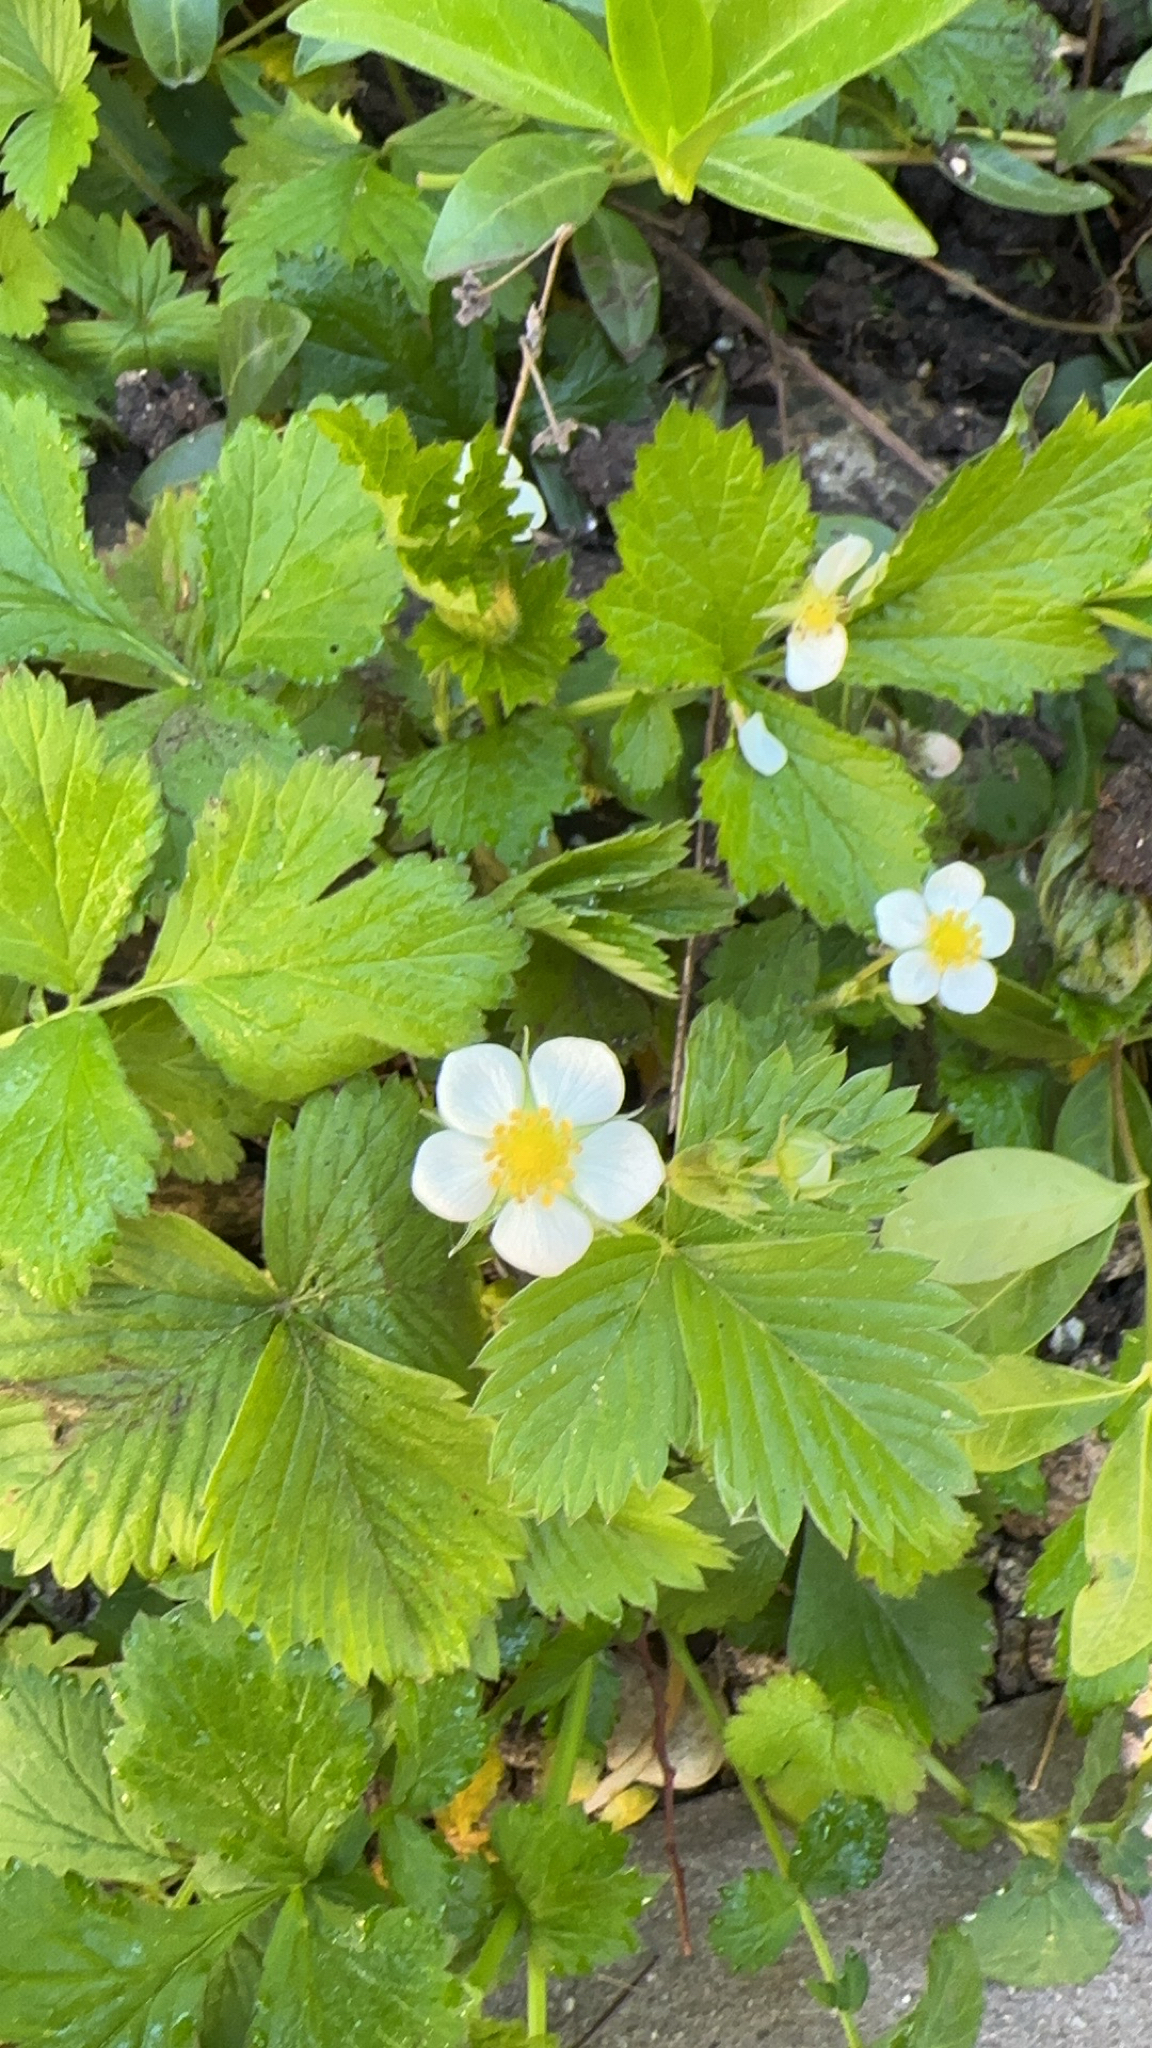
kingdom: Plantae
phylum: Tracheophyta
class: Magnoliopsida
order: Rosales
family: Rosaceae
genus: Fragaria
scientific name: Fragaria vesca
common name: Wild strawberry
